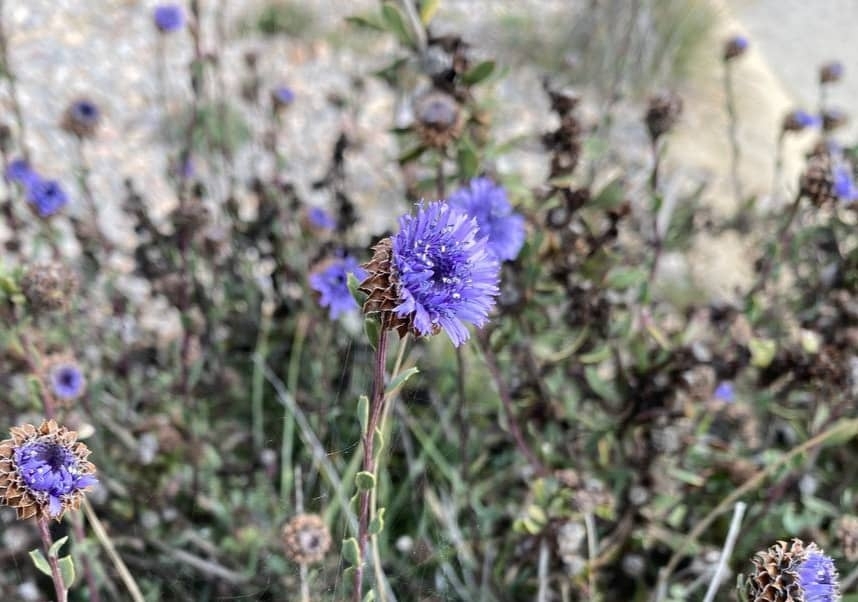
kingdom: Plantae
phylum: Tracheophyta
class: Magnoliopsida
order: Lamiales
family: Plantaginaceae
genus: Globularia
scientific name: Globularia alypum
